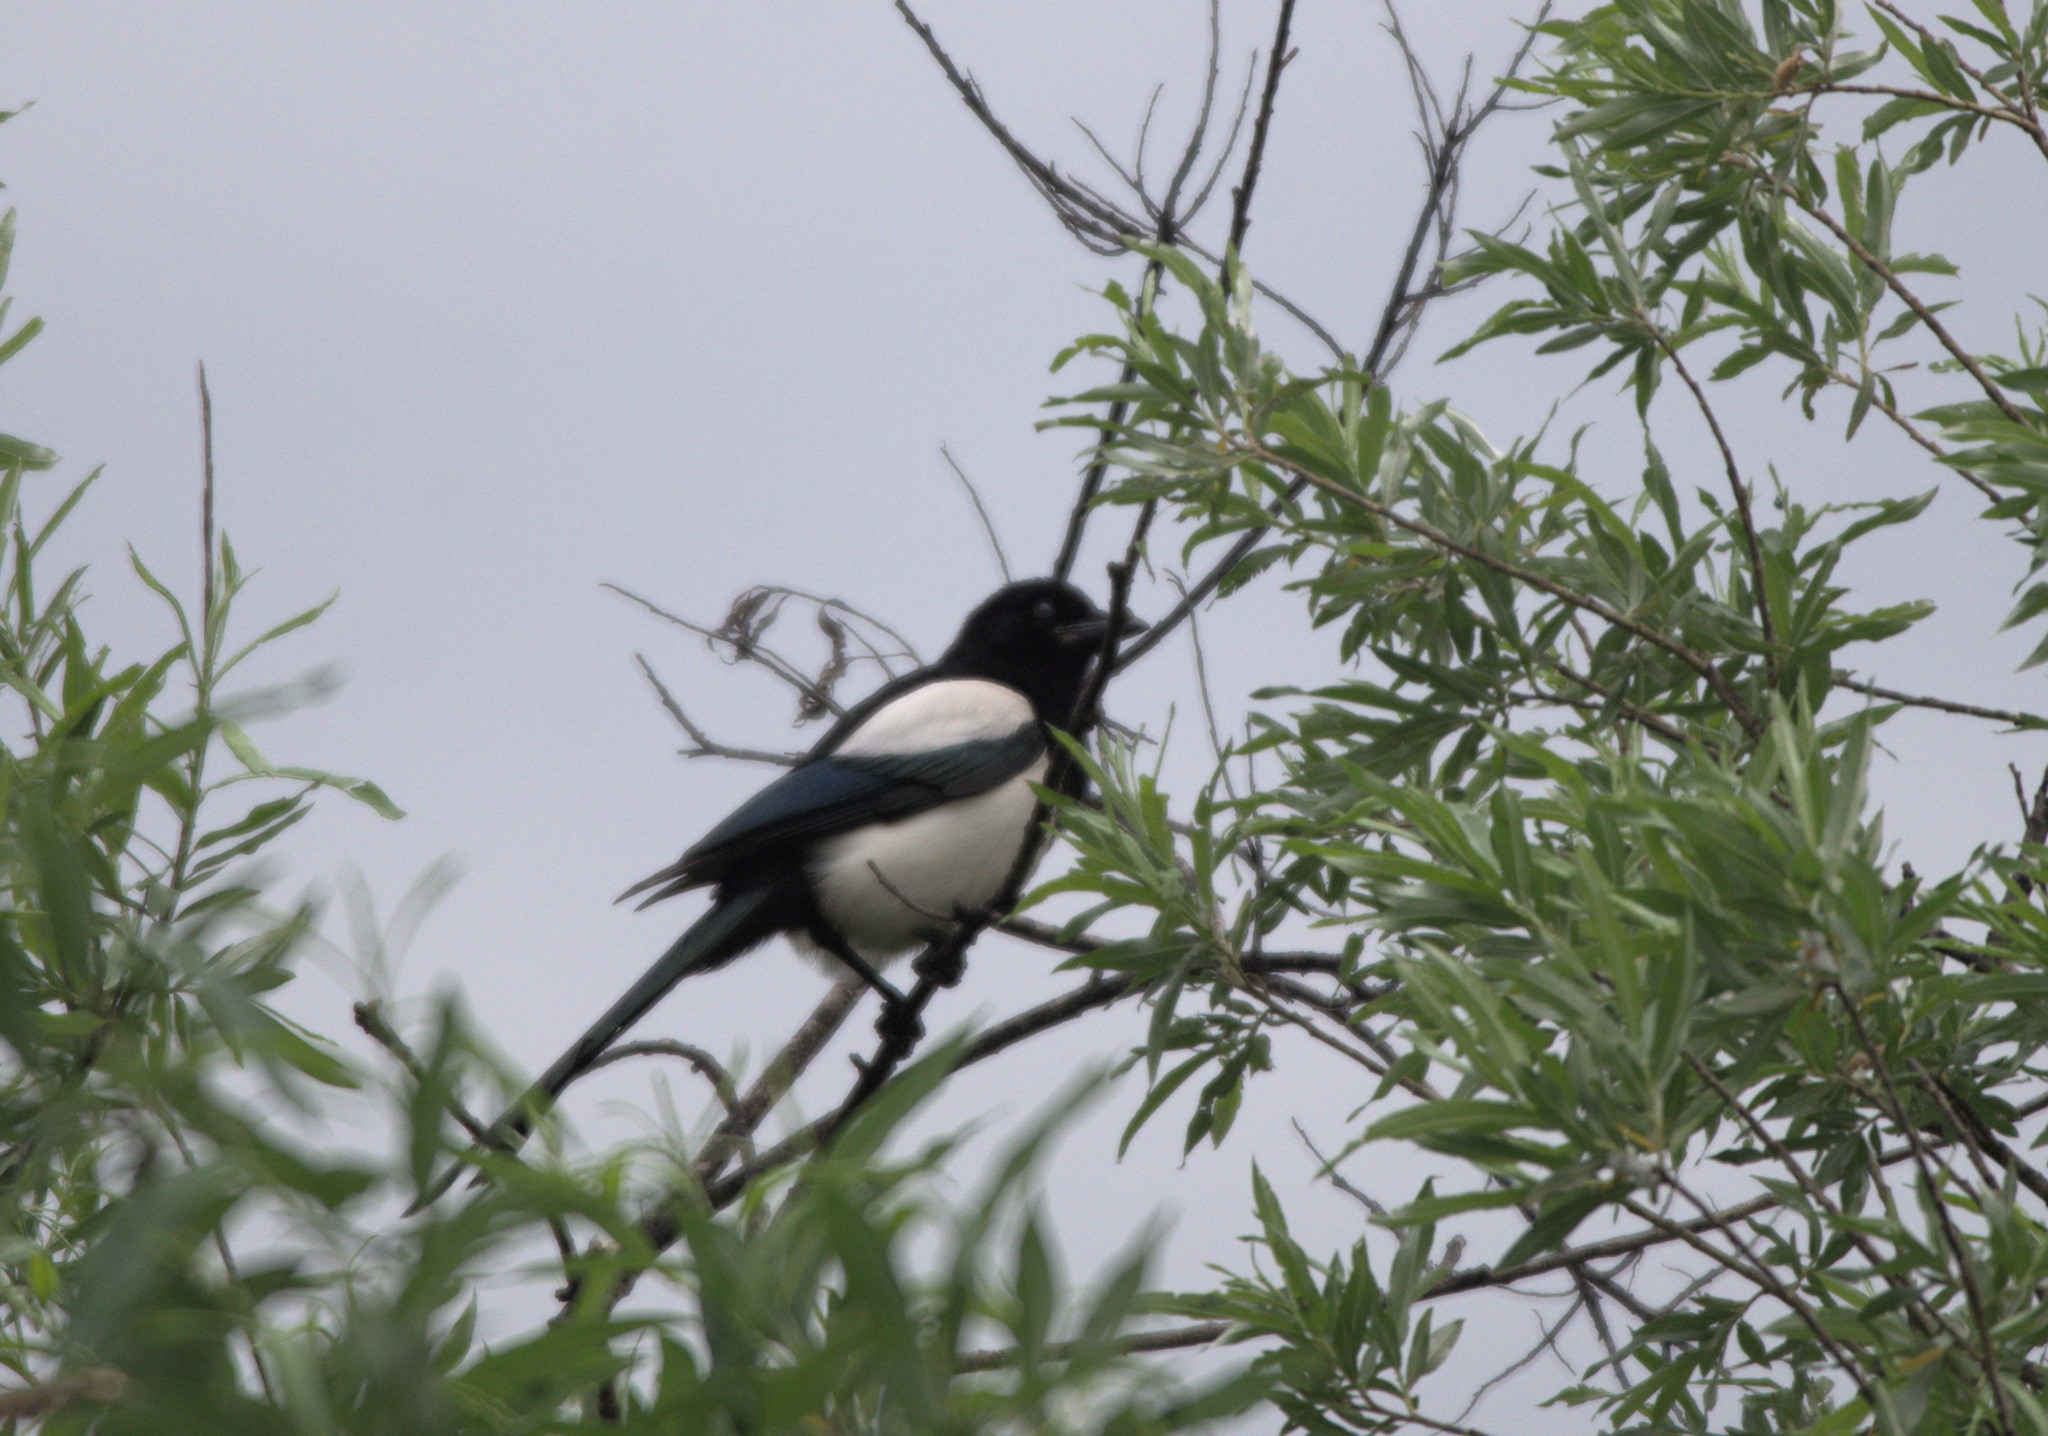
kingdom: Animalia
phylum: Chordata
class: Aves
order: Passeriformes
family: Corvidae
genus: Pica
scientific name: Pica pica
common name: Eurasian magpie
